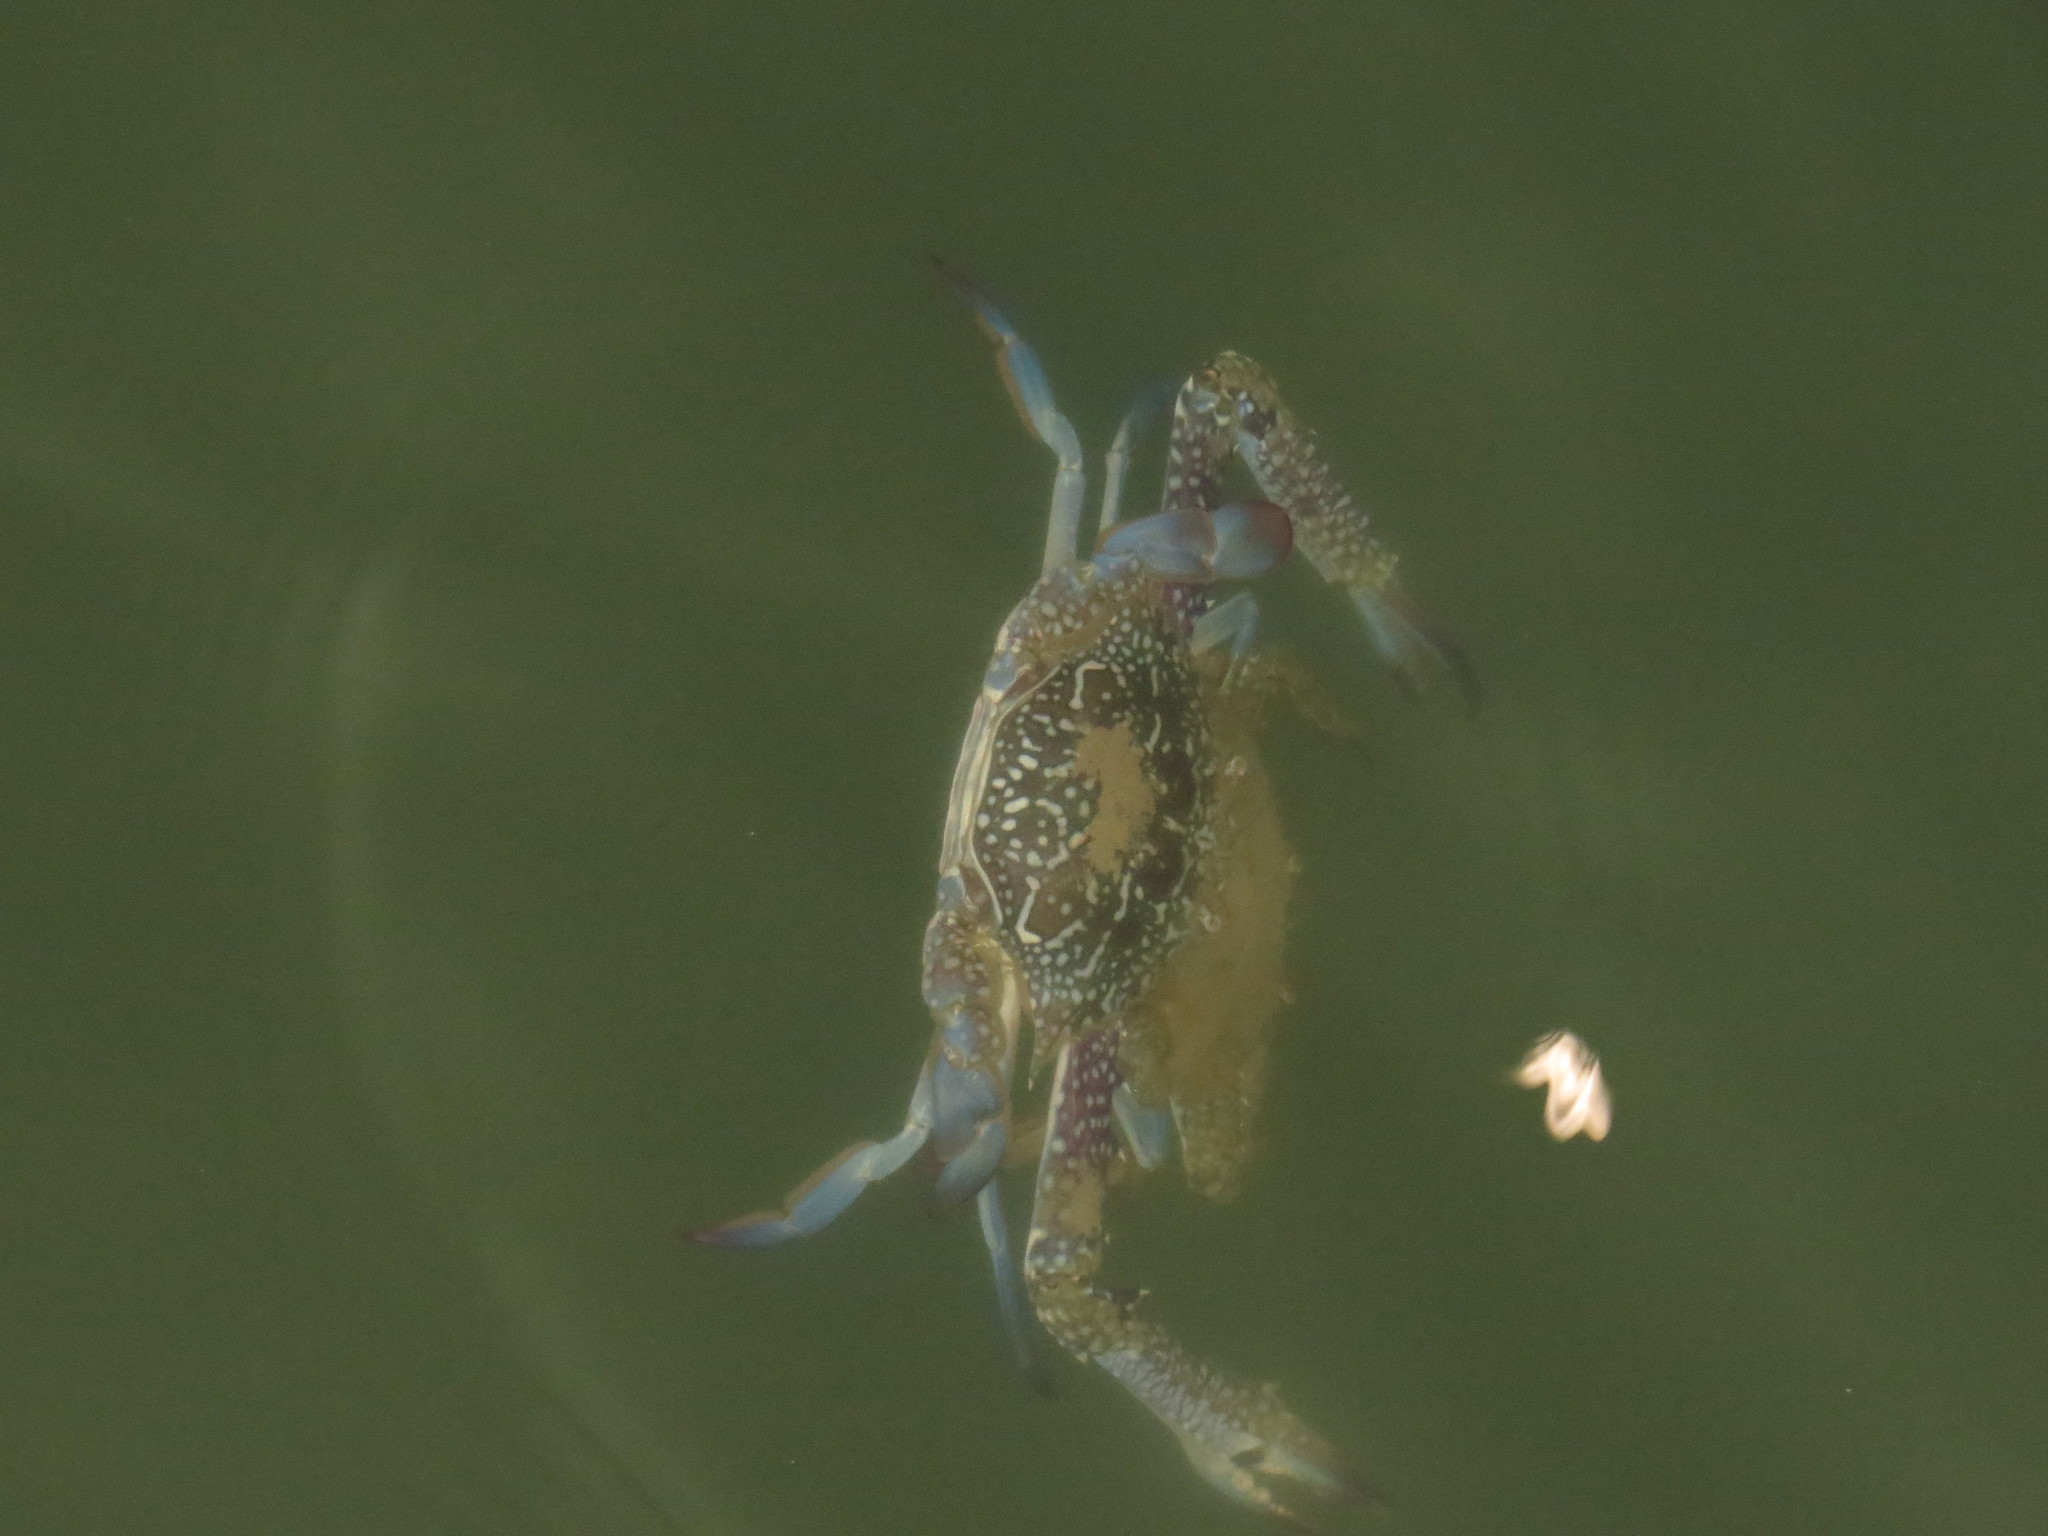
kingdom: Animalia
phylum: Arthropoda
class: Malacostraca
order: Decapoda
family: Portunidae
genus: Portunus
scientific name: Portunus armatus
